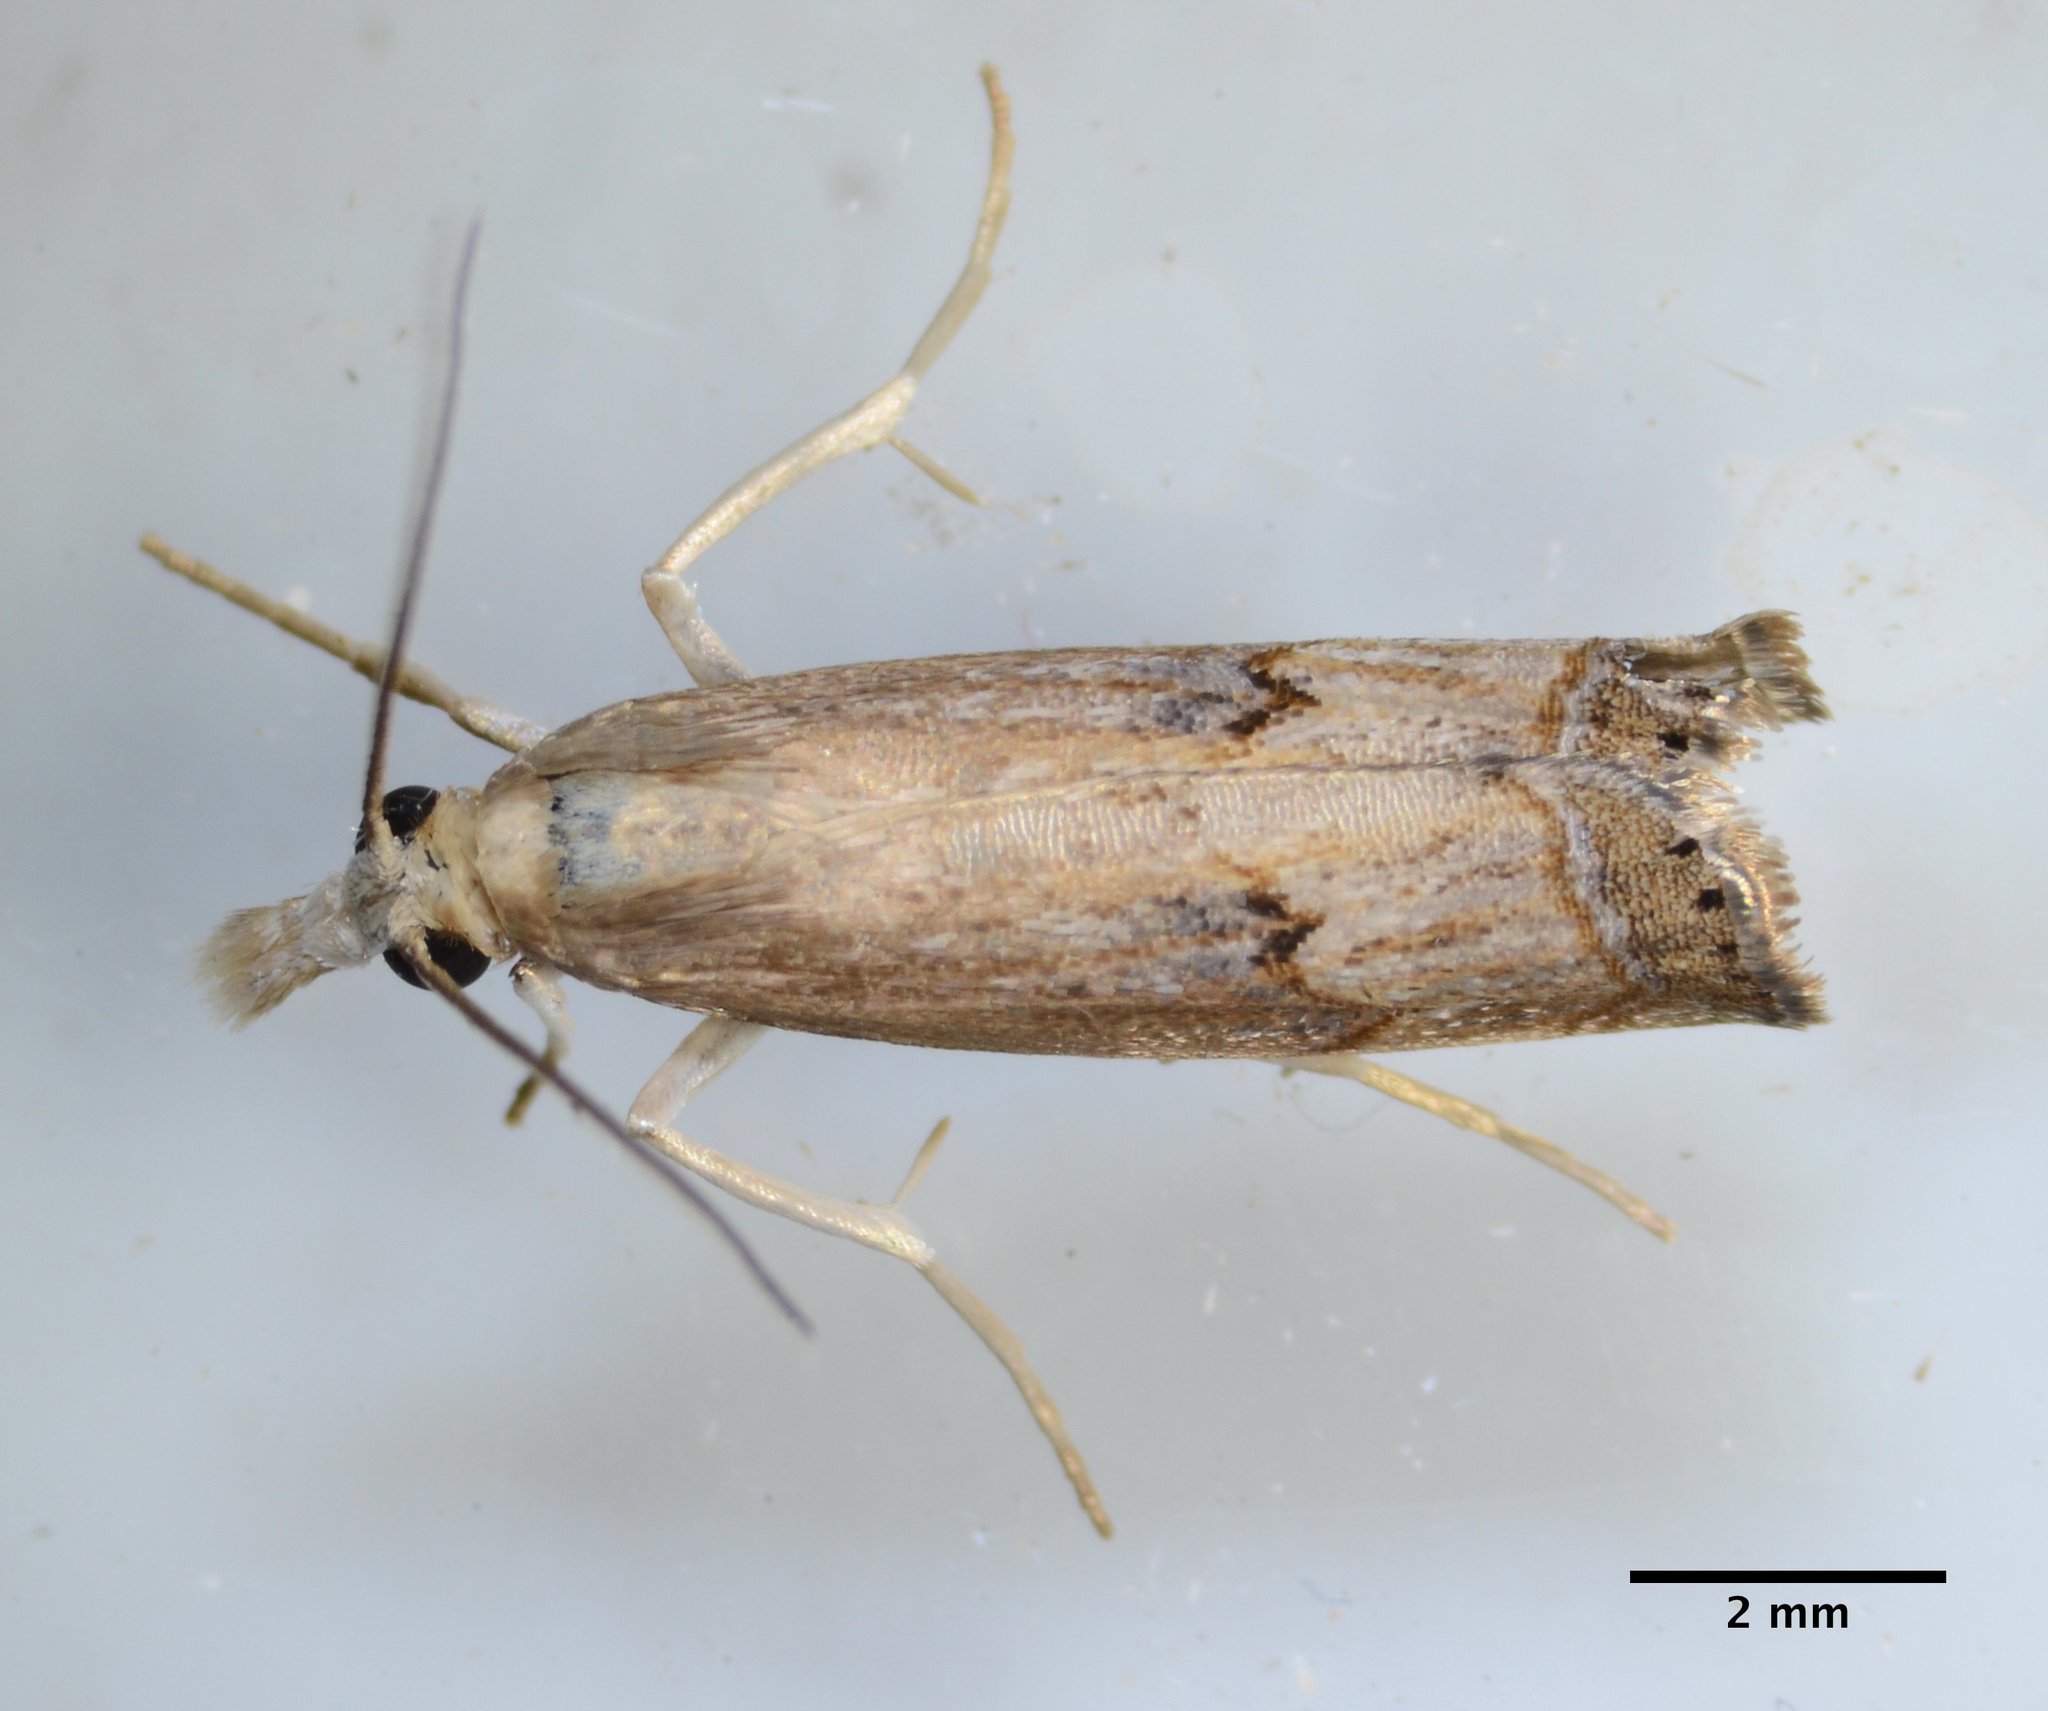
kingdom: Animalia
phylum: Arthropoda
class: Insecta
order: Lepidoptera
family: Crambidae
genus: Parapediasia
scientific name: Parapediasia teterellus
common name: Bluegrass webworm moth
